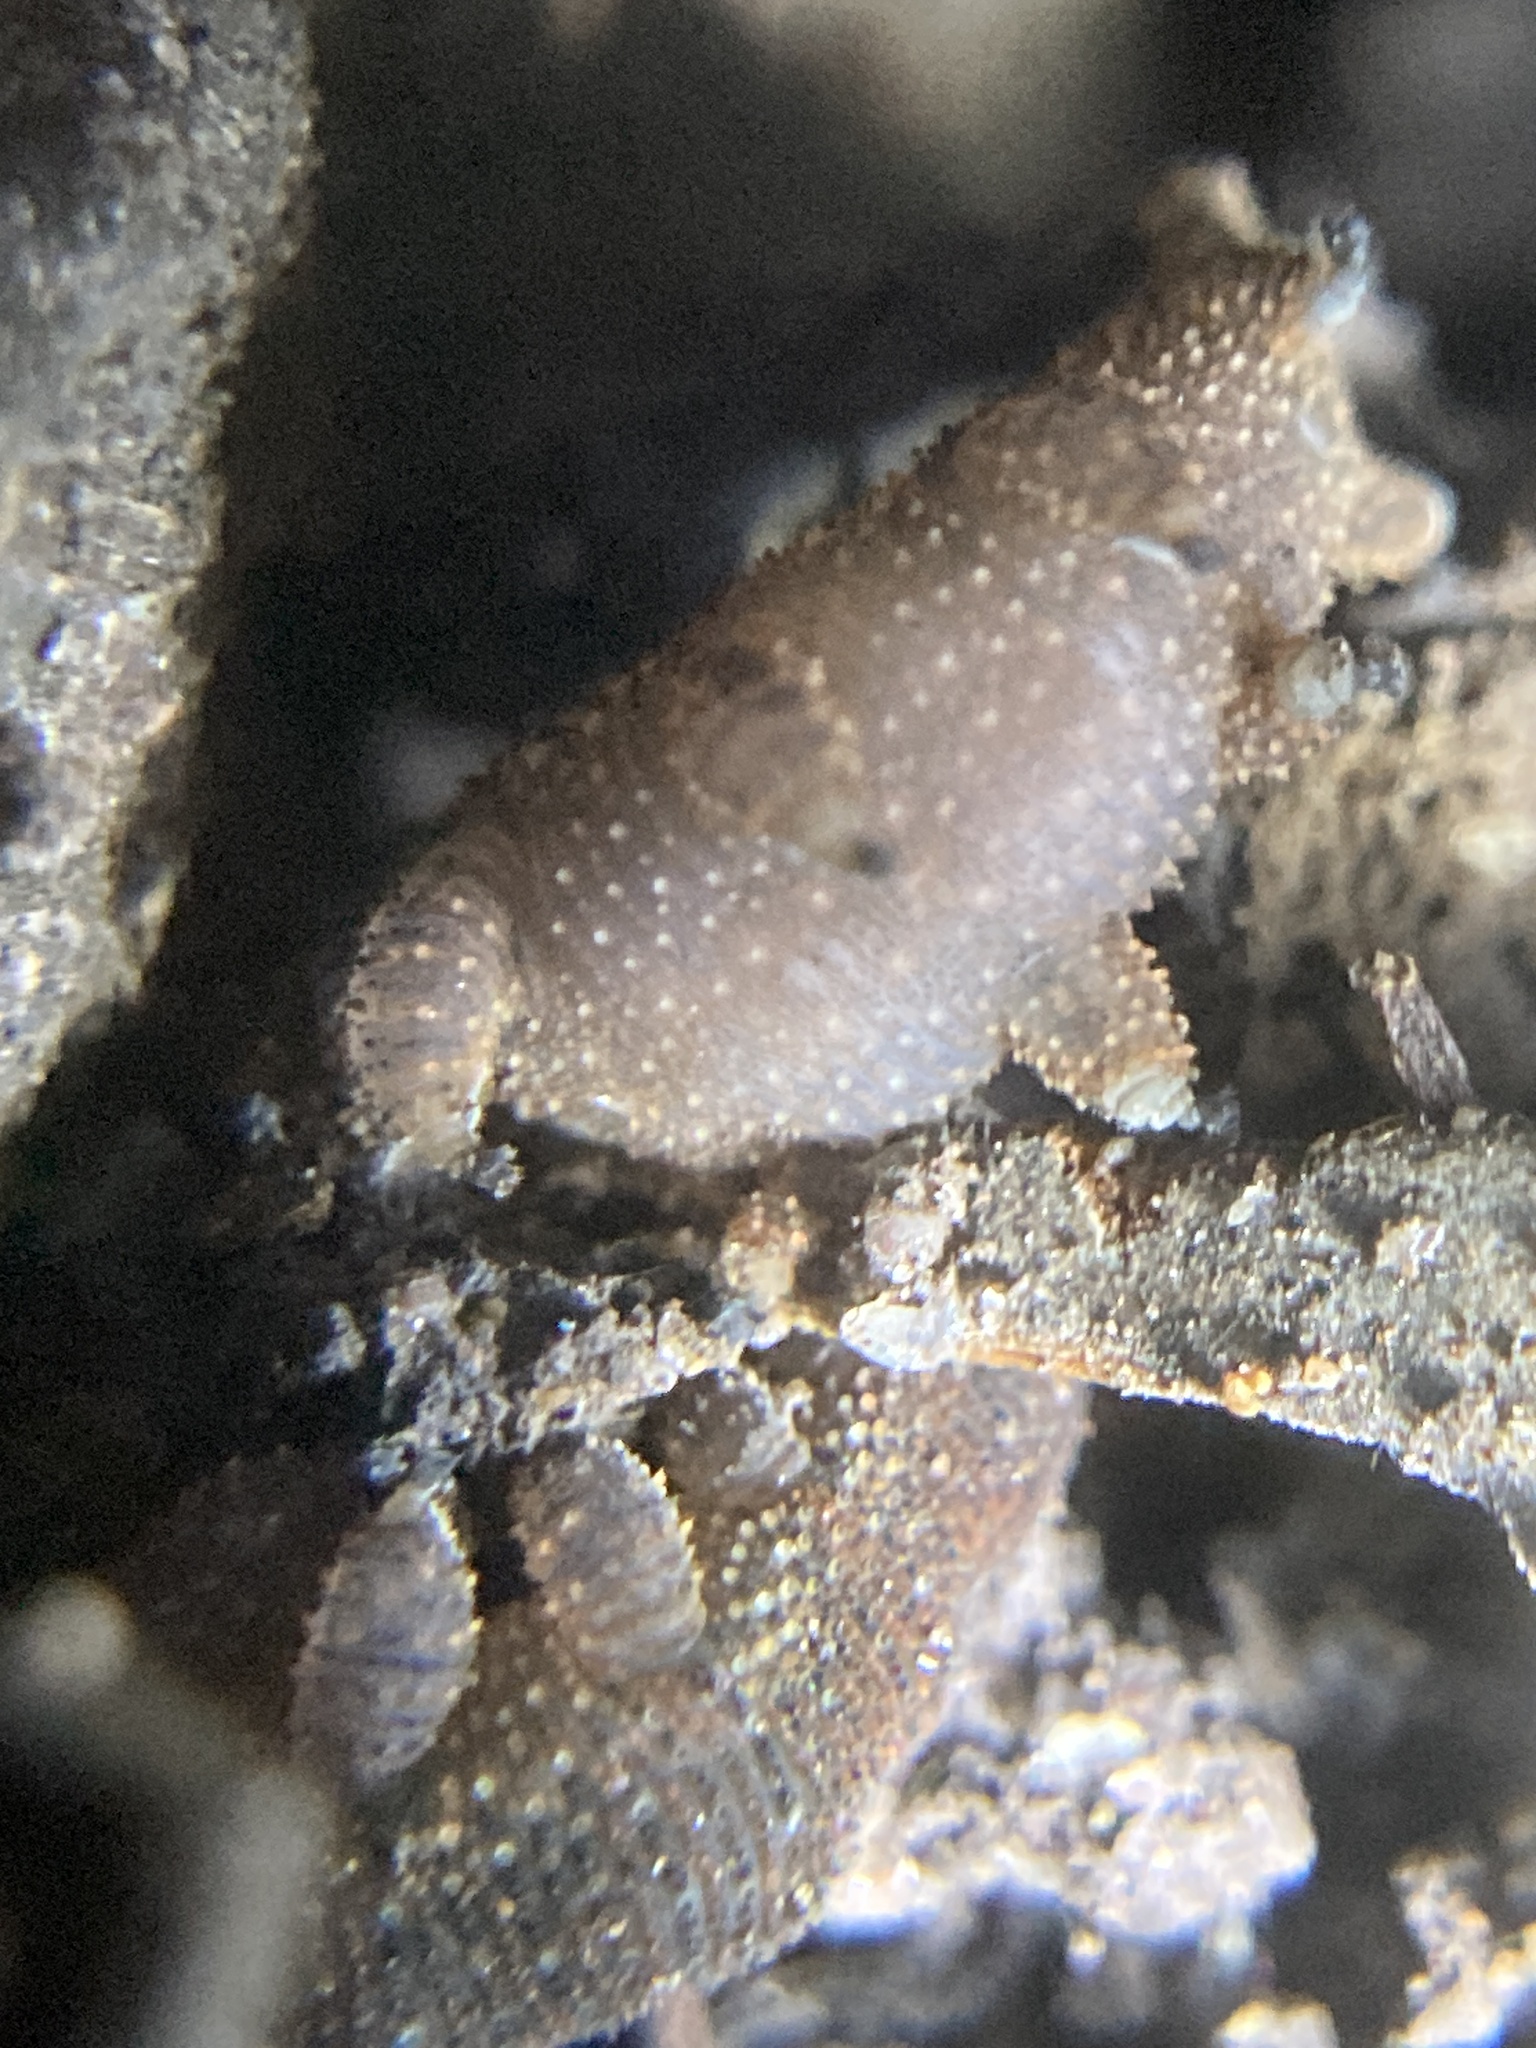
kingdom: Animalia
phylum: Onychophora
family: Peripatopsidae
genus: Anoplokaros
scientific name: Anoplokaros keerensis
